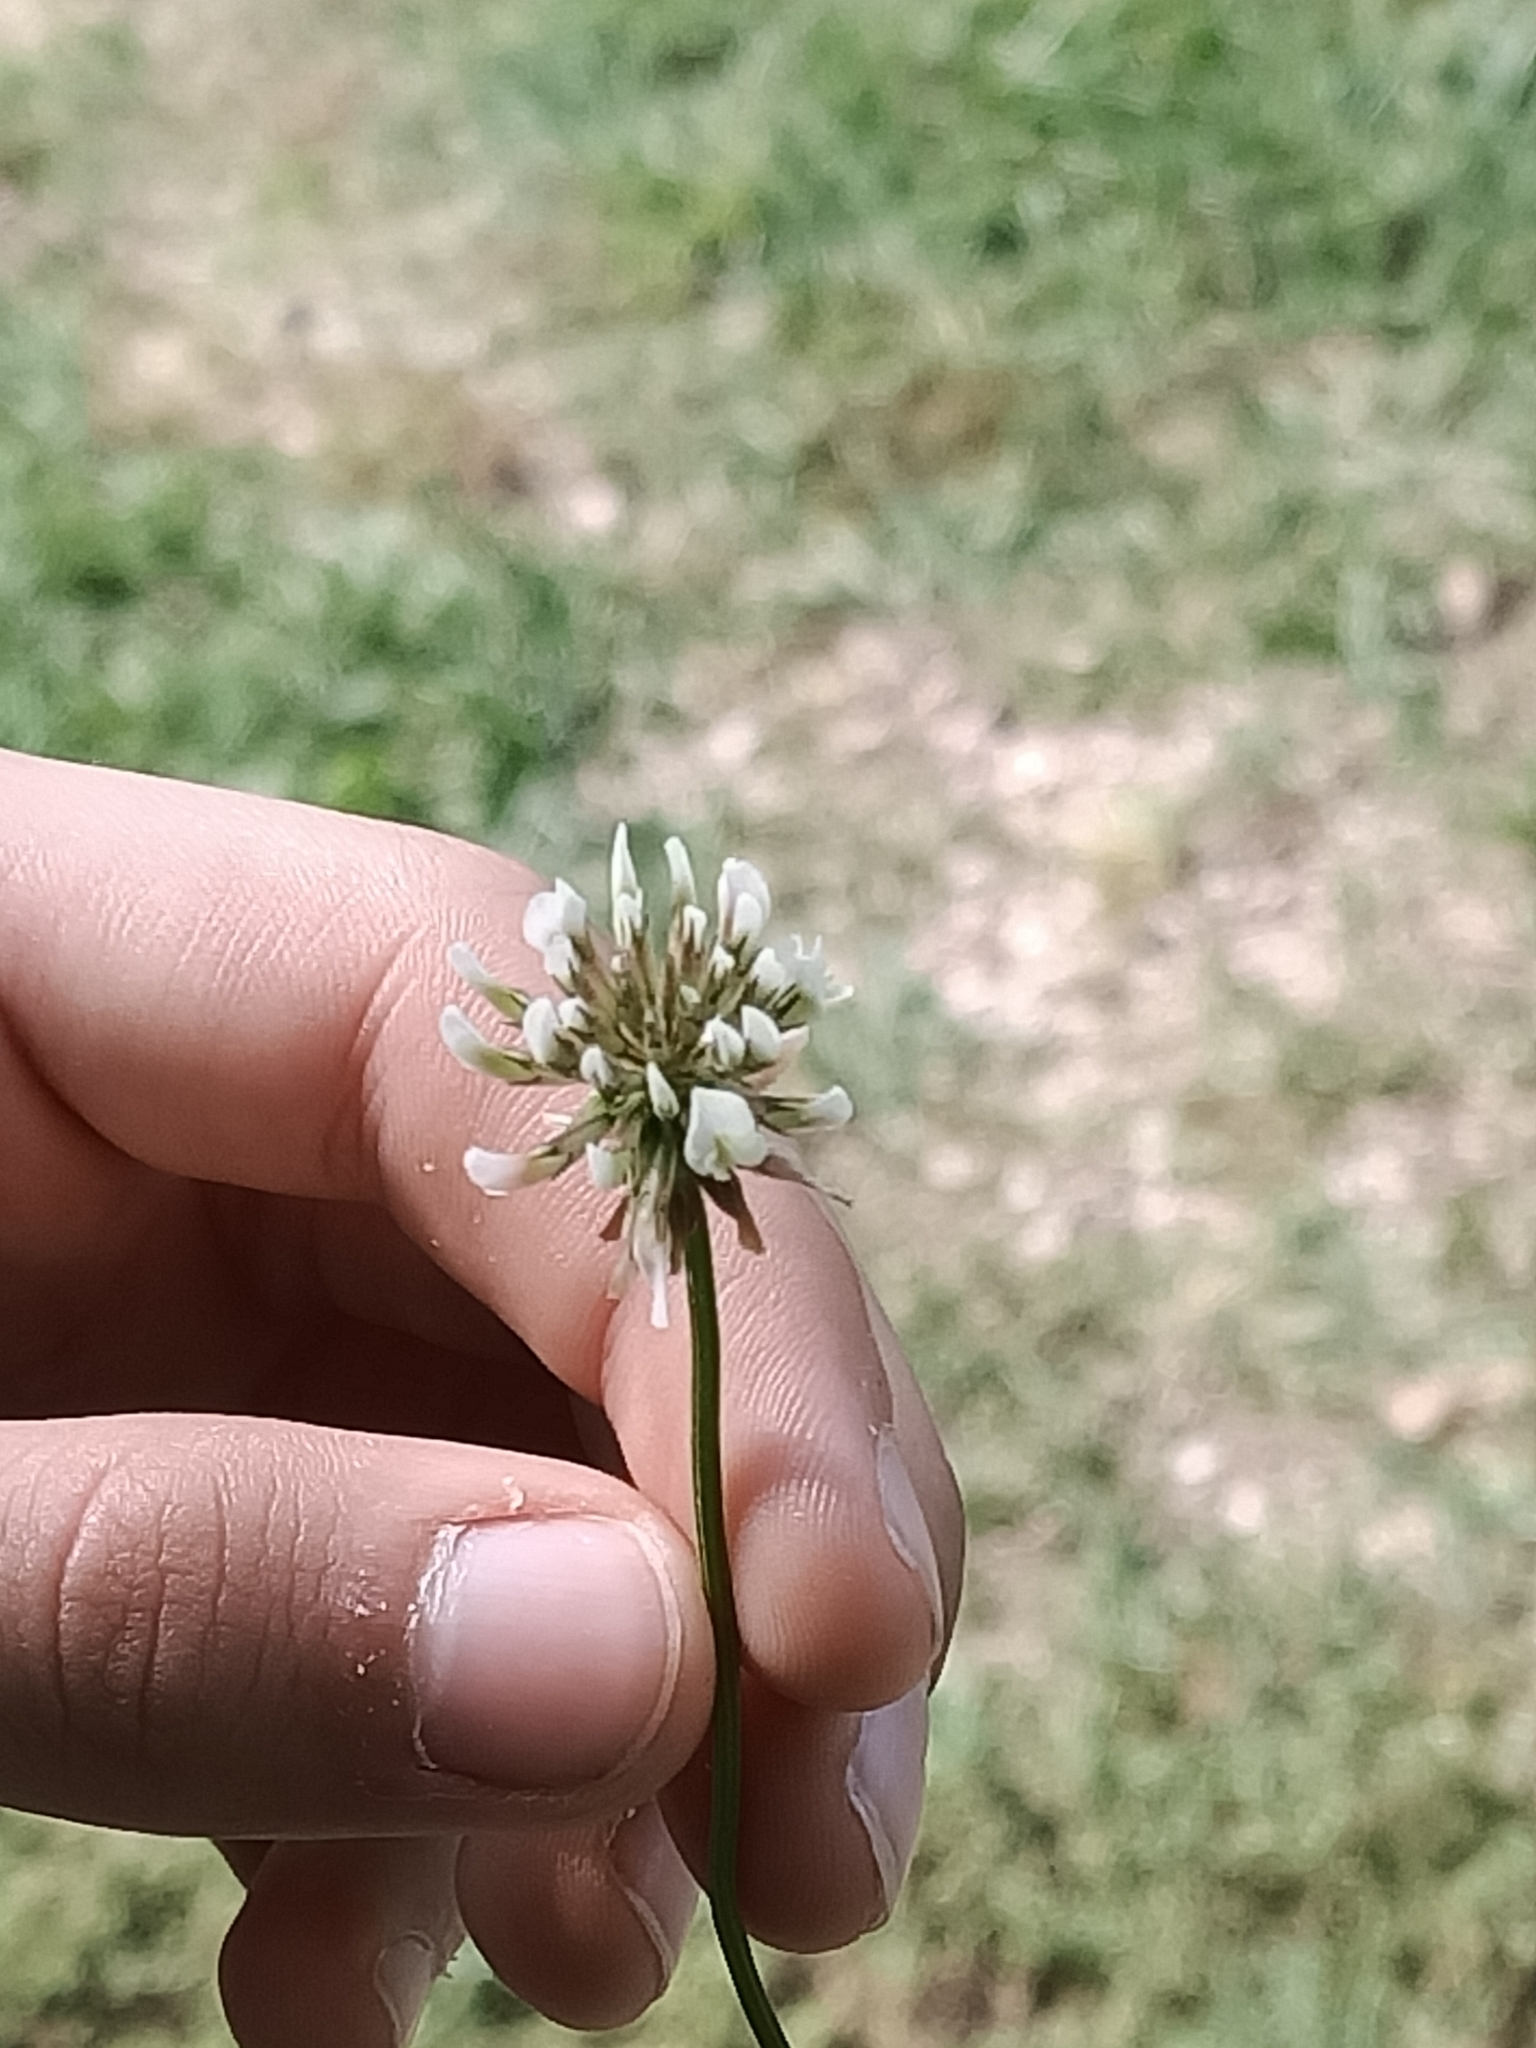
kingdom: Plantae
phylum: Tracheophyta
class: Magnoliopsida
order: Fabales
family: Fabaceae
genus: Trifolium
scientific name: Trifolium repens
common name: White clover
